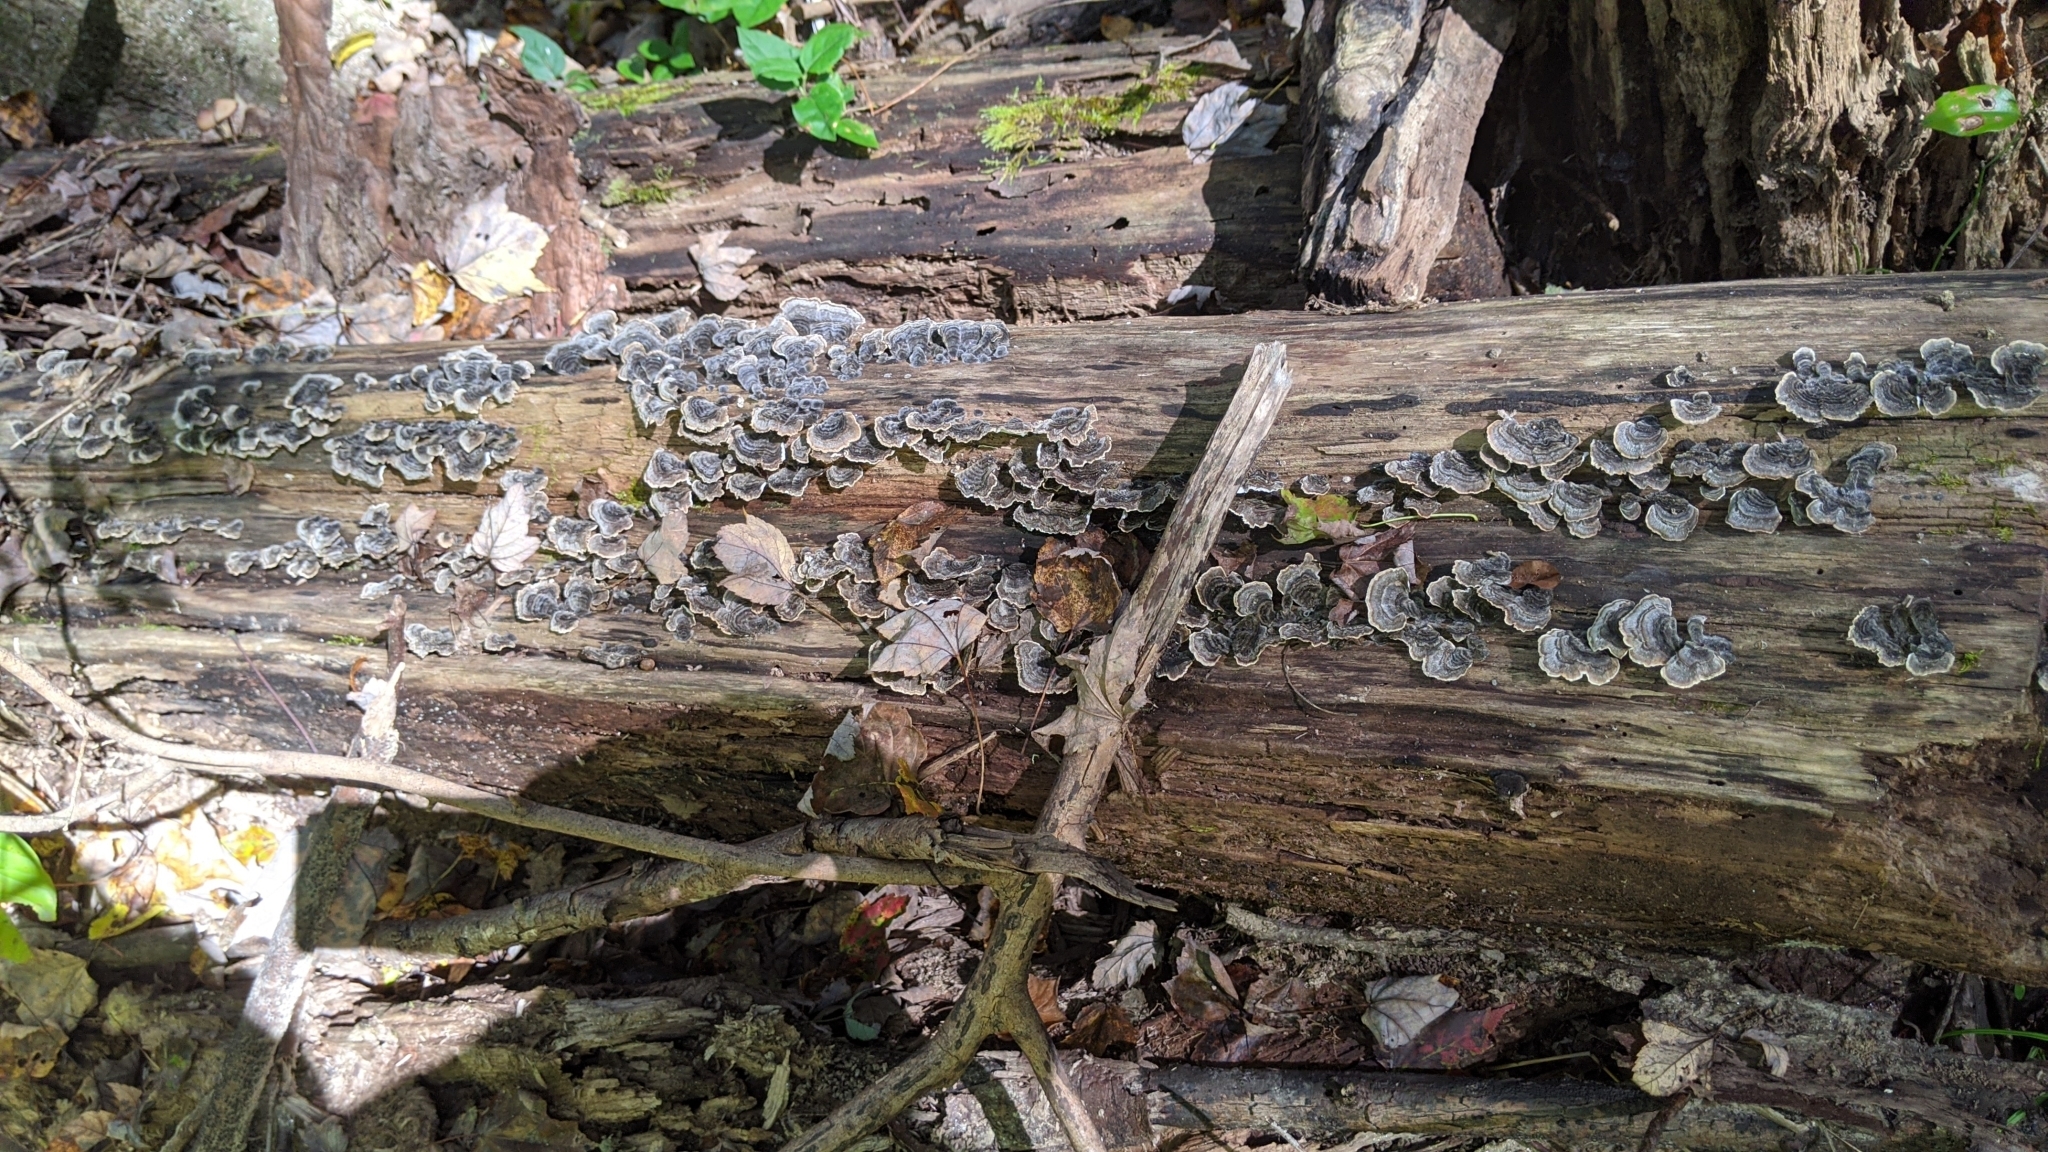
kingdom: Fungi
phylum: Basidiomycota
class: Agaricomycetes
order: Polyporales
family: Polyporaceae
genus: Trametes
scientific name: Trametes versicolor
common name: Turkeytail
